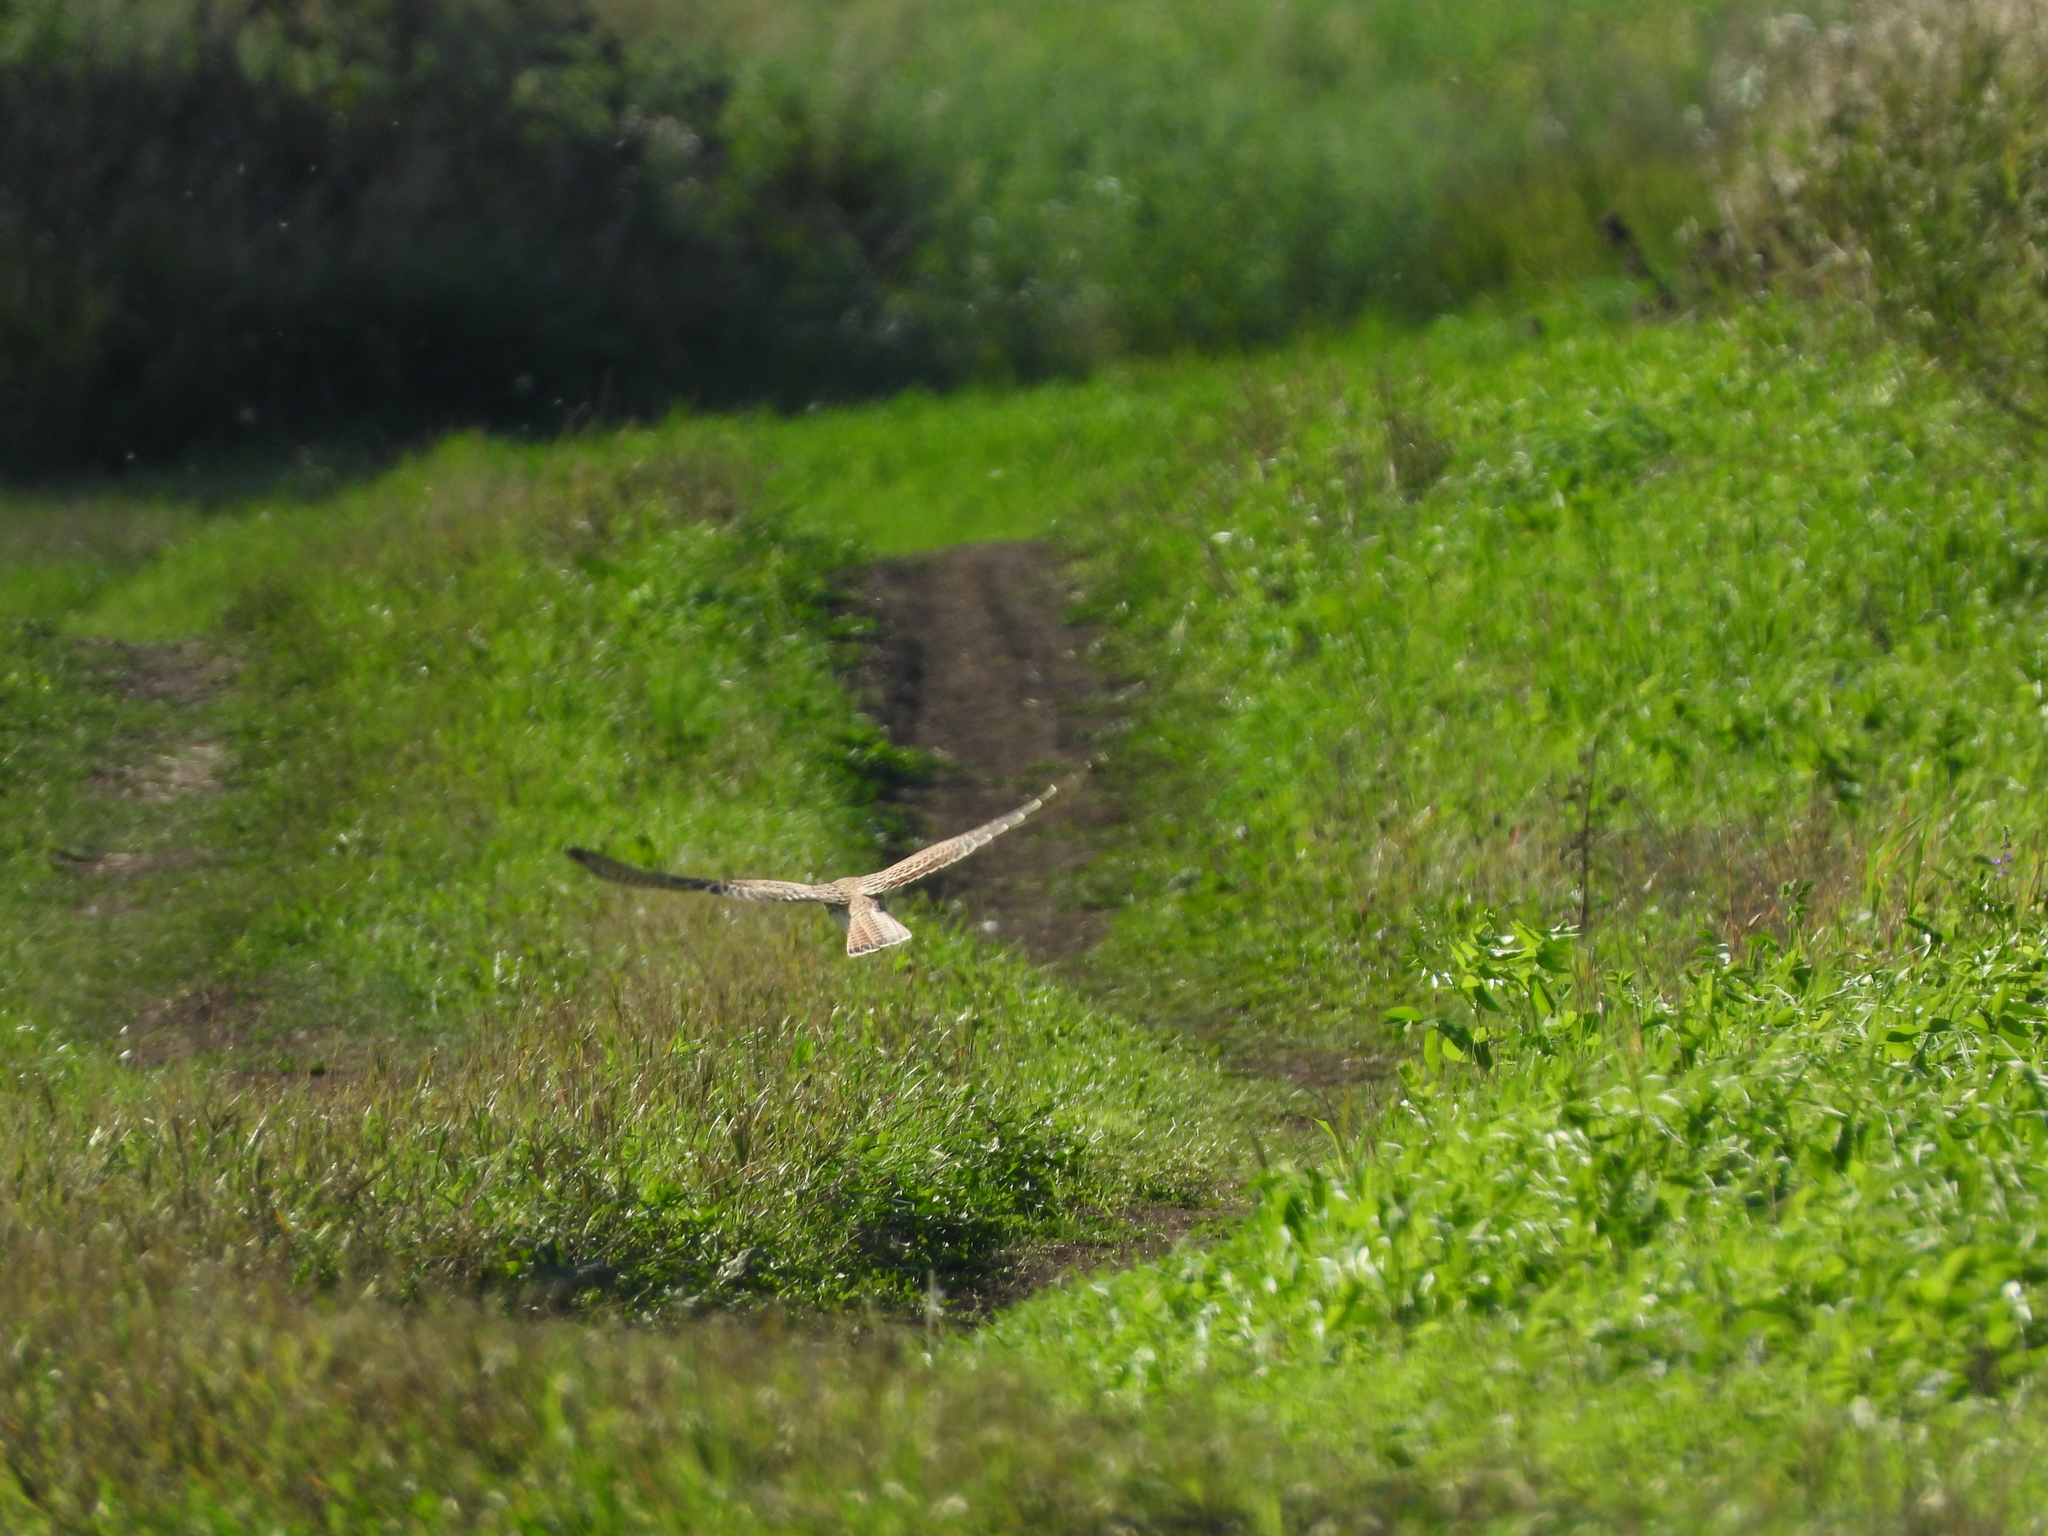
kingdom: Animalia
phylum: Chordata
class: Aves
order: Falconiformes
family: Falconidae
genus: Falco
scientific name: Falco tinnunculus
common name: Common kestrel
